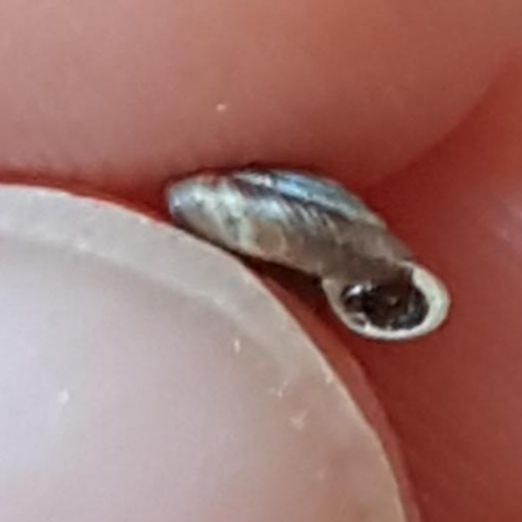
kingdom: Animalia
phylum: Mollusca
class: Gastropoda
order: Stylommatophora
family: Discidae
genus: Discus
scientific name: Discus rotundatus
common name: Rounded snail
